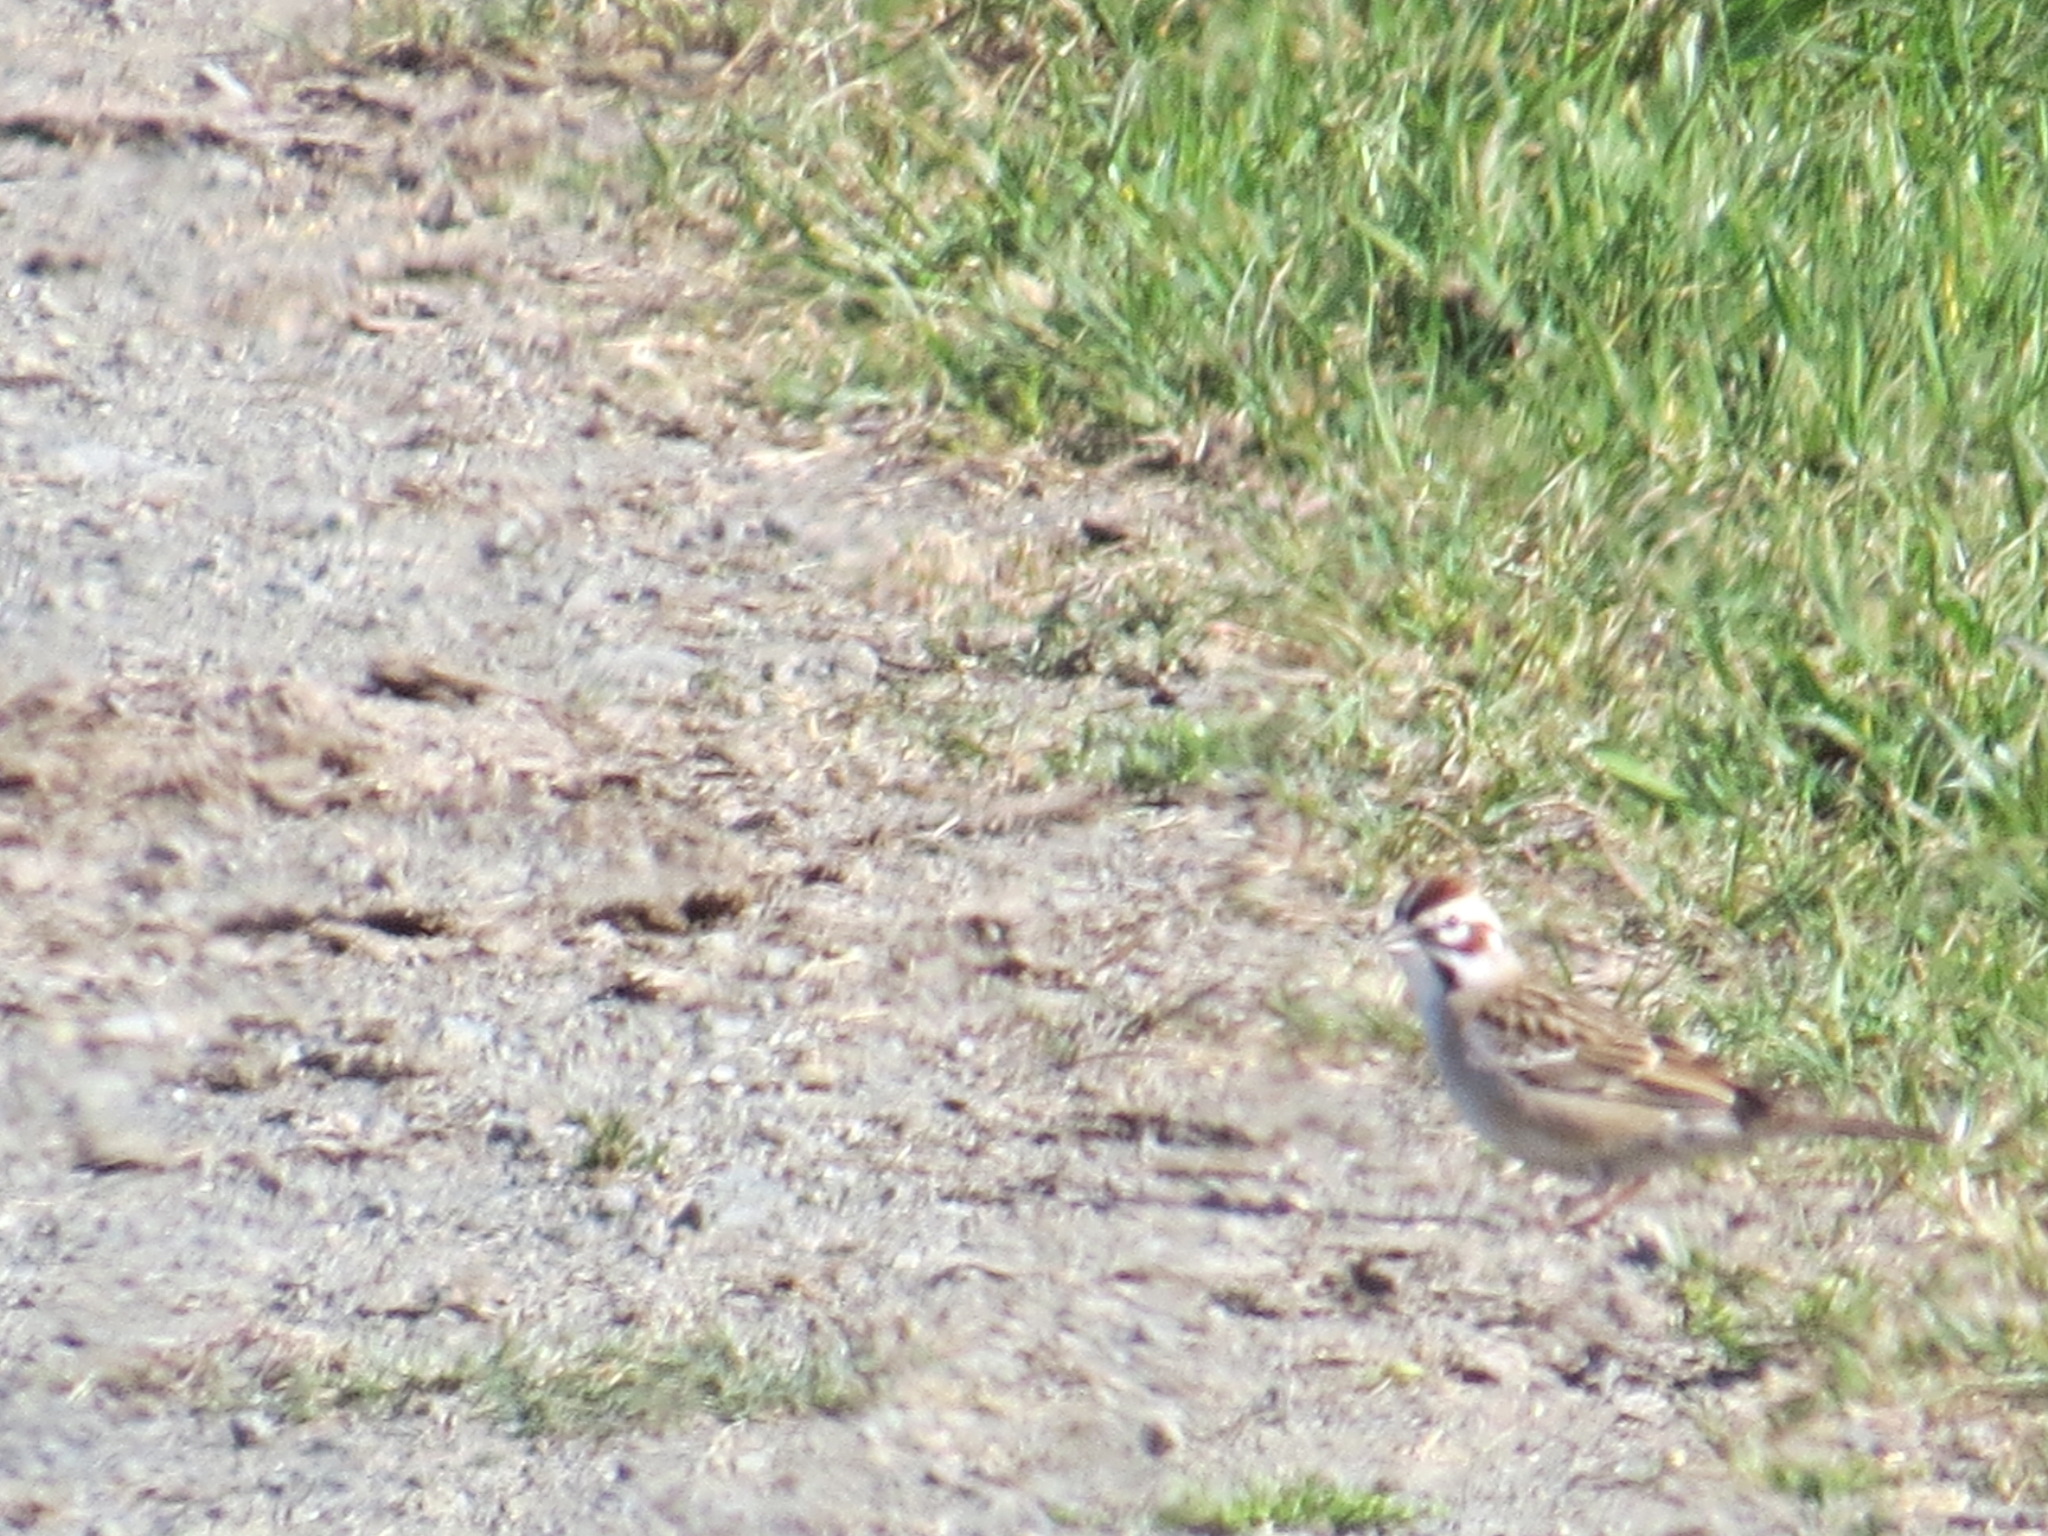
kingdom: Animalia
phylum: Chordata
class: Aves
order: Passeriformes
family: Passerellidae
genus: Chondestes
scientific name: Chondestes grammacus
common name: Lark sparrow
